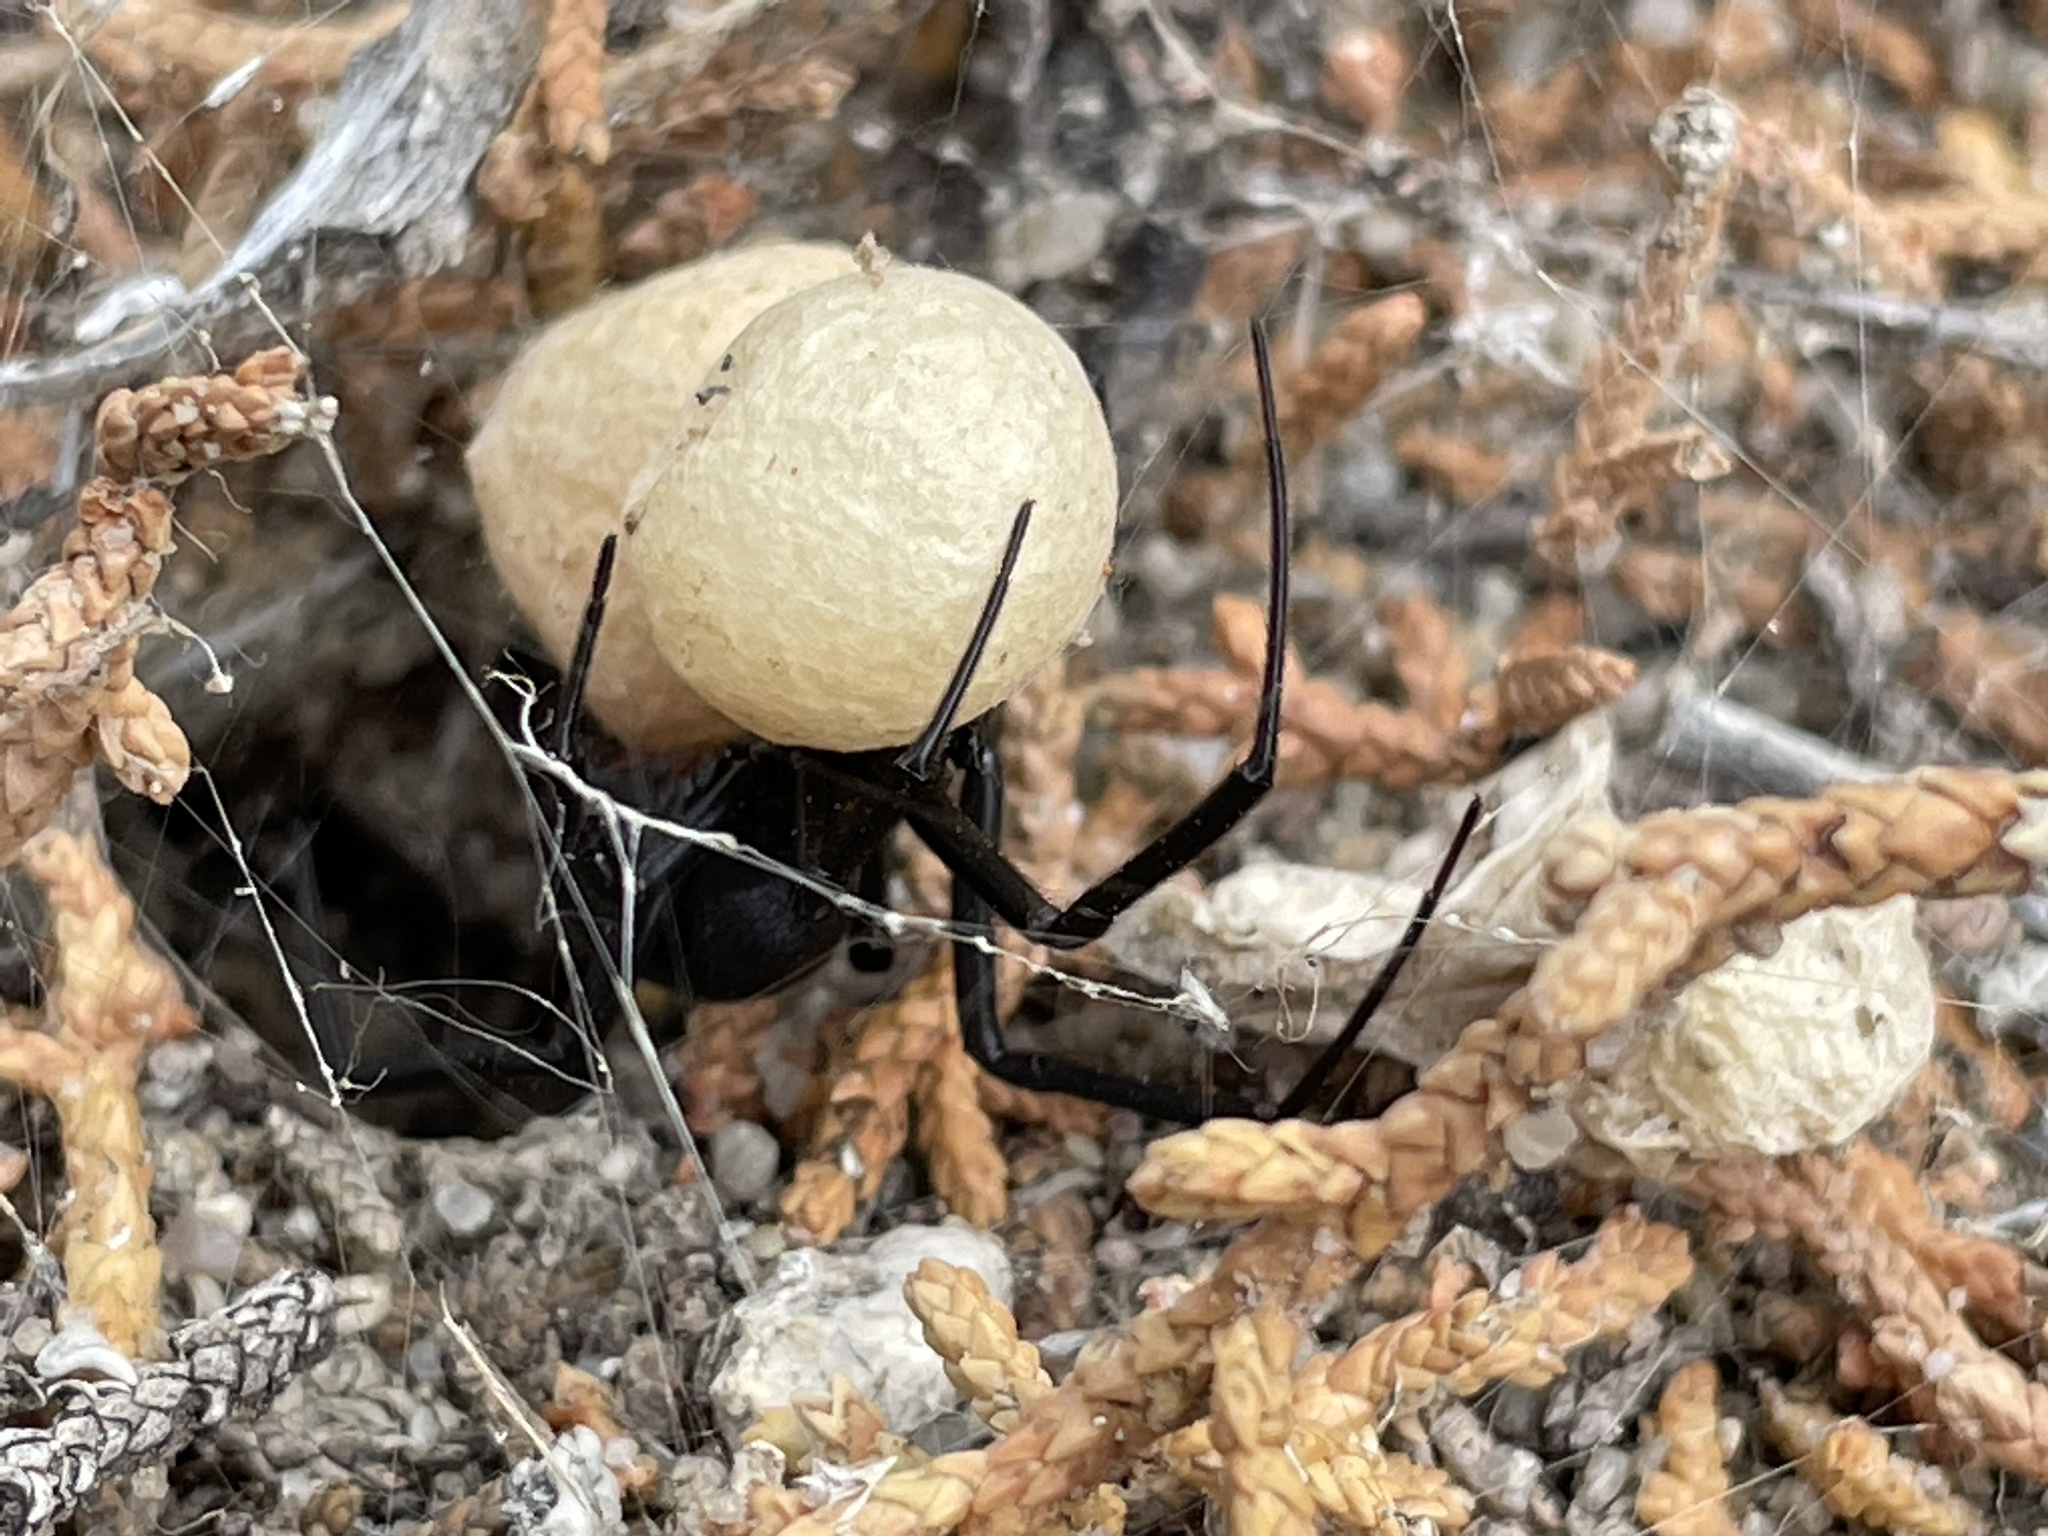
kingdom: Animalia
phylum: Arthropoda
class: Arachnida
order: Araneae
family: Theridiidae
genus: Latrodectus
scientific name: Latrodectus hesperus
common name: Western black widow
